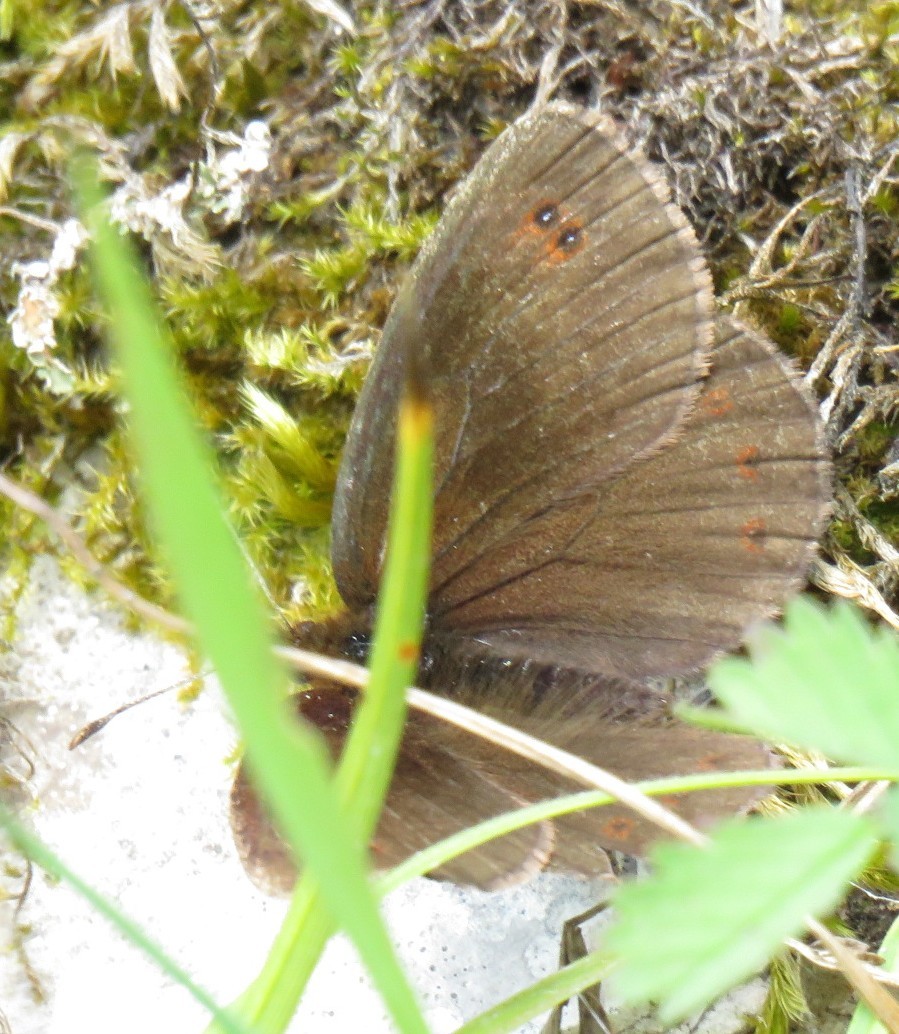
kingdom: Animalia
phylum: Arthropoda
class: Insecta
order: Lepidoptera
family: Nymphalidae
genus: Erebia
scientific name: Erebia pronoe
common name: Water ringlet
